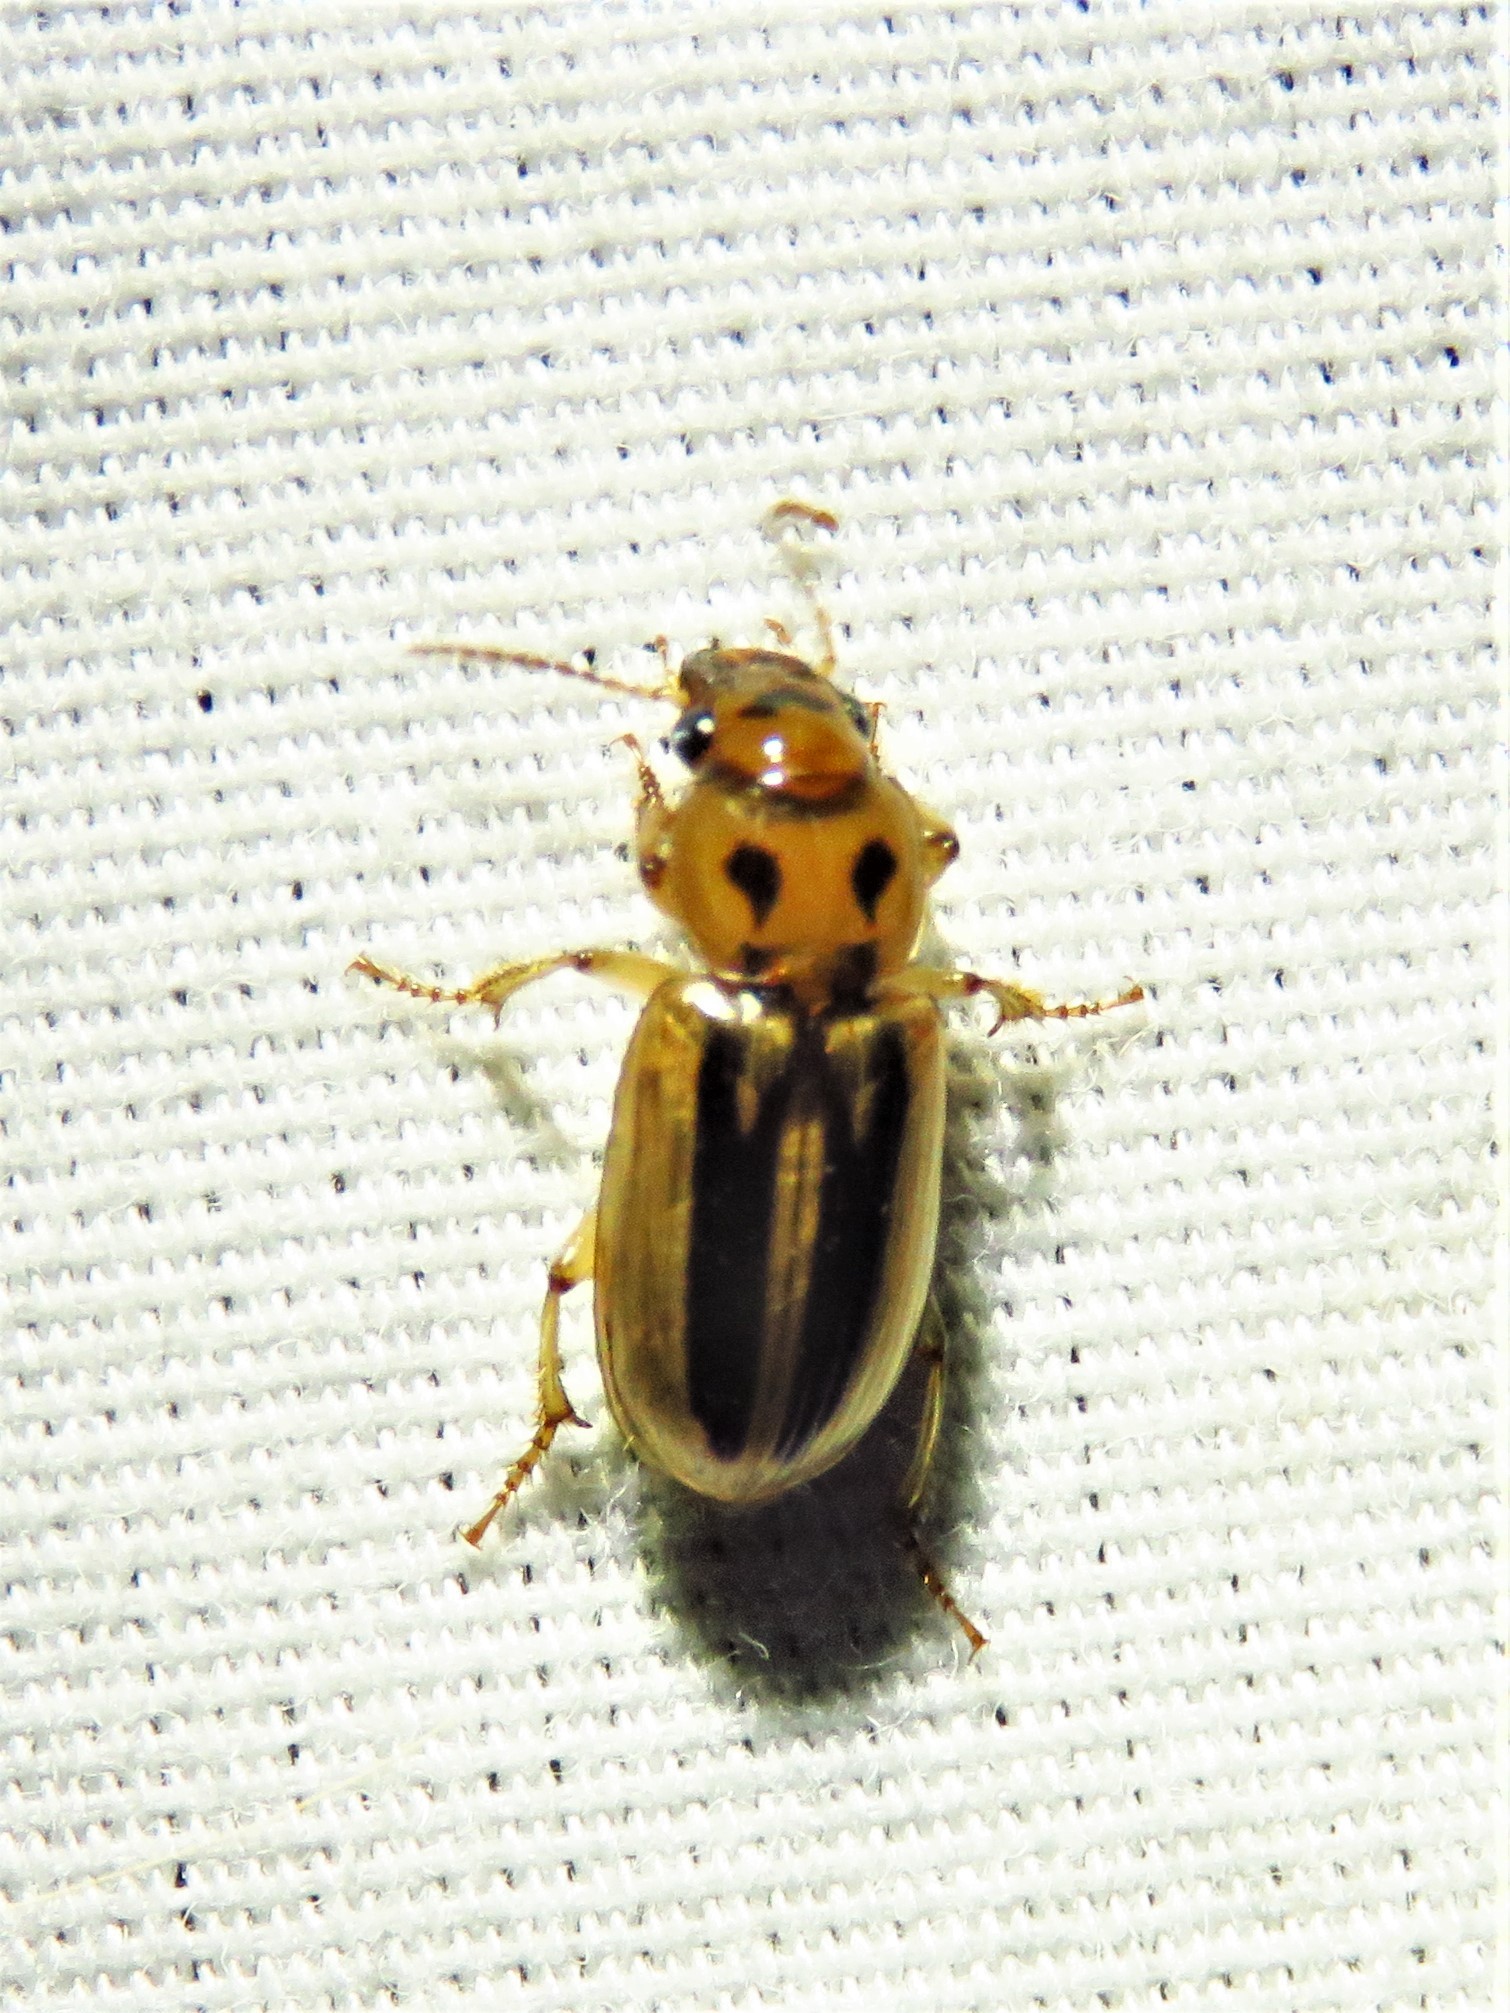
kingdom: Animalia
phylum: Arthropoda
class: Insecta
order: Coleoptera
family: Carabidae
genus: Stenolophus
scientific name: Stenolophus lineola
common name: Lined stenolophus
